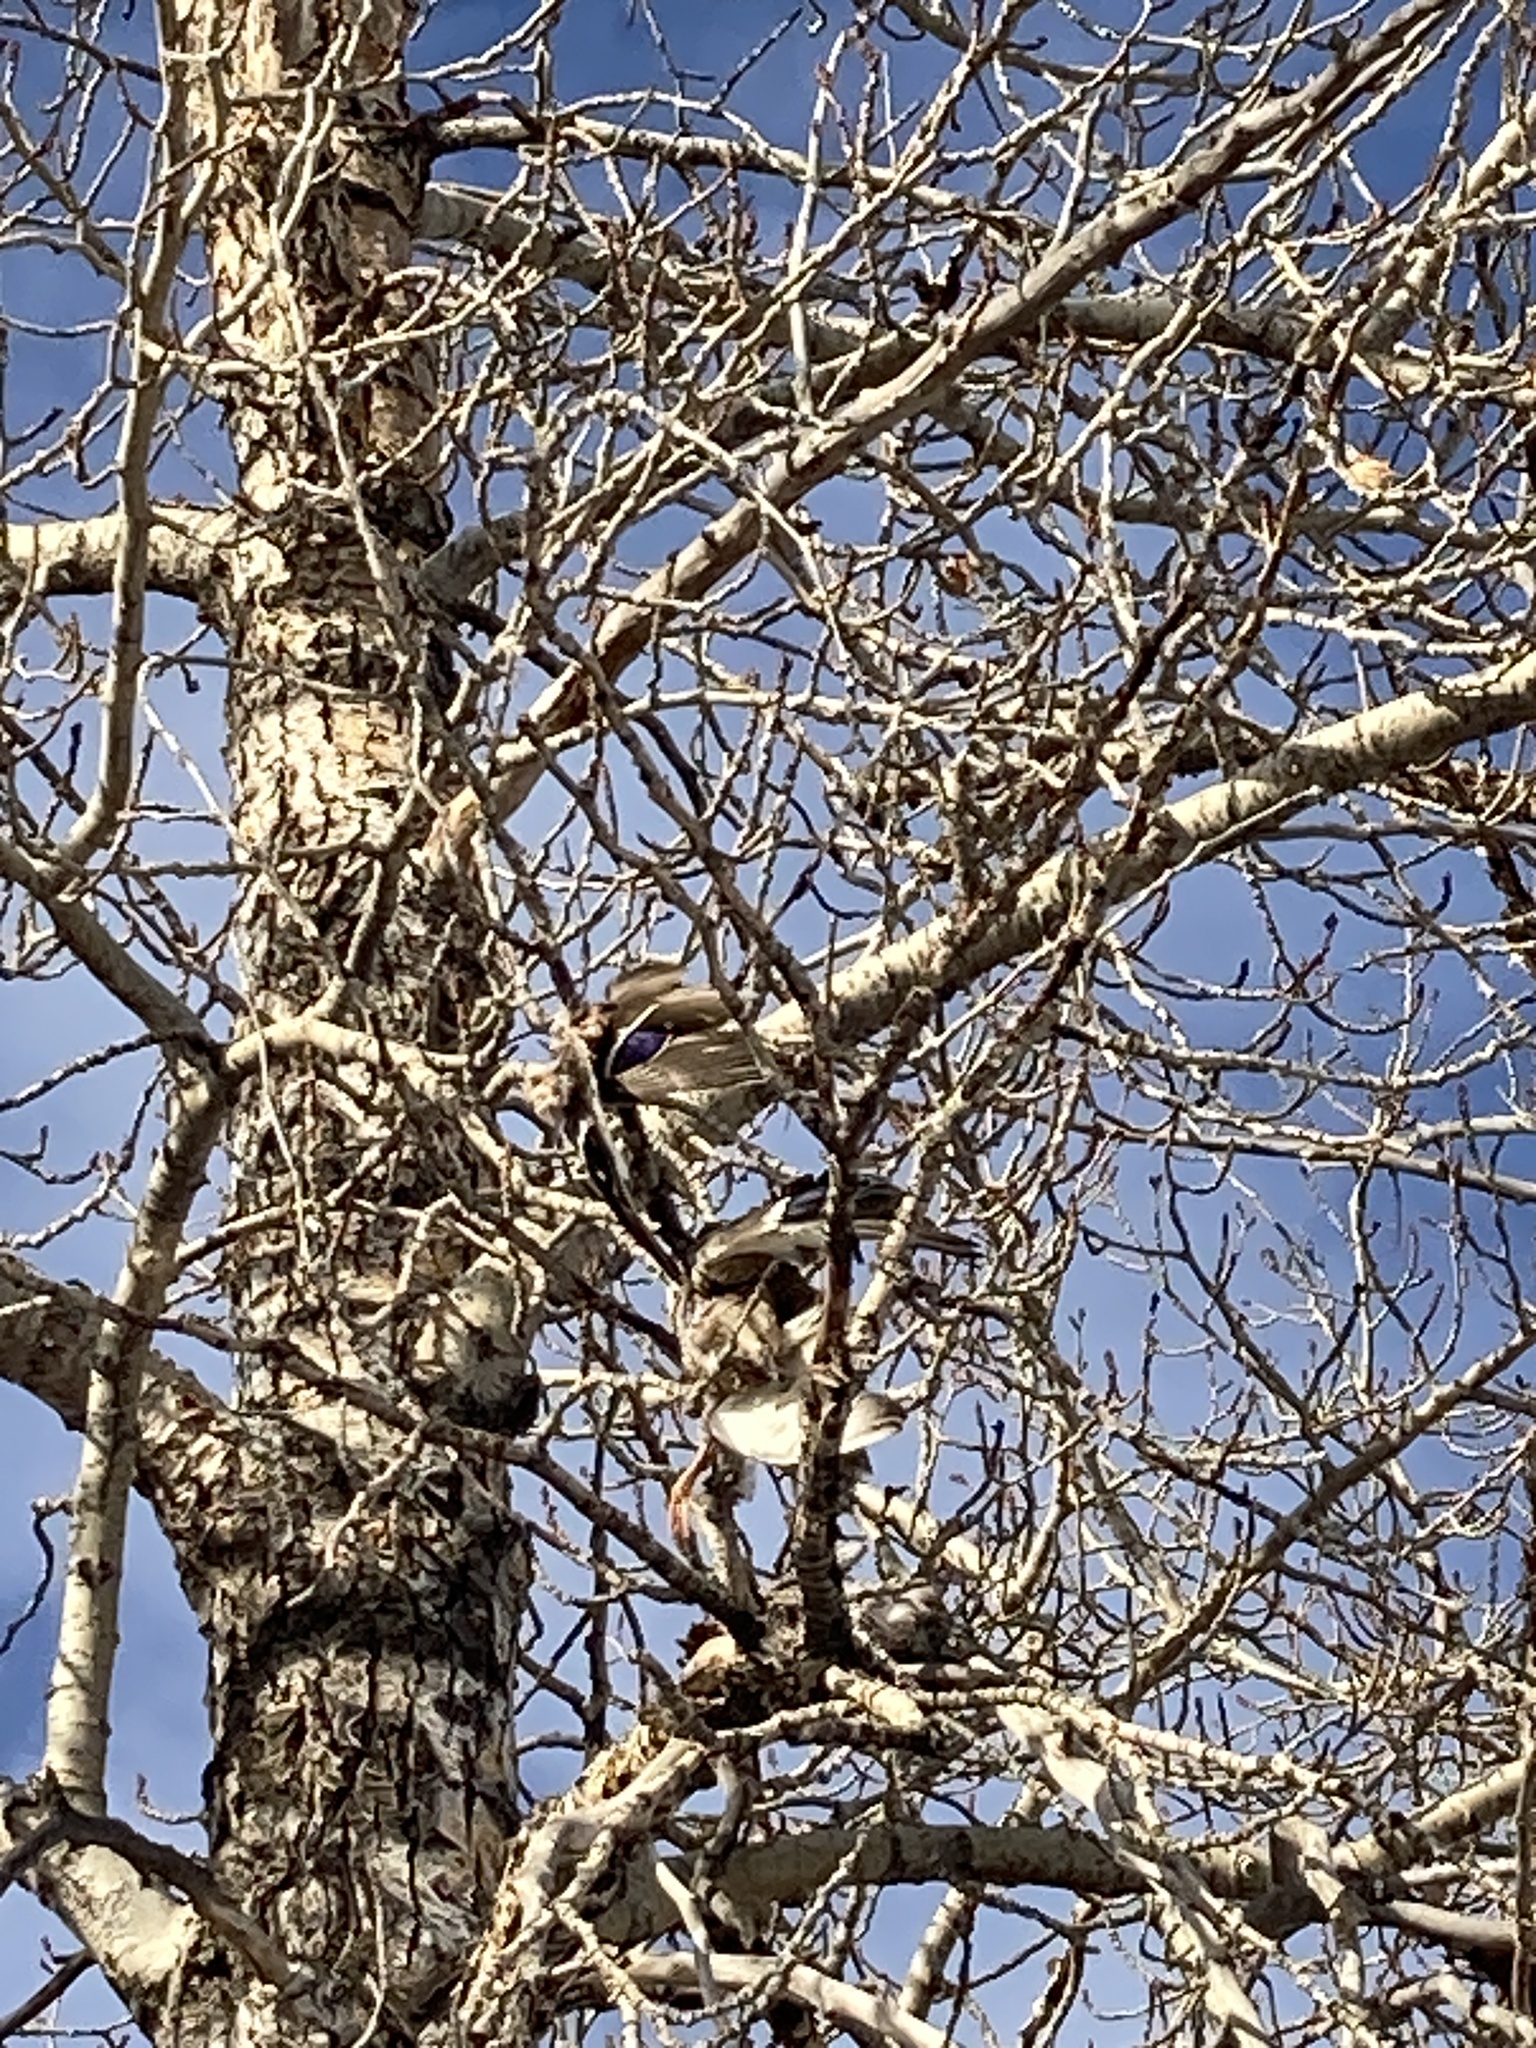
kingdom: Animalia
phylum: Chordata
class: Aves
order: Anseriformes
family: Anatidae
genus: Anas
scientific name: Anas platyrhynchos
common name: Mallard
